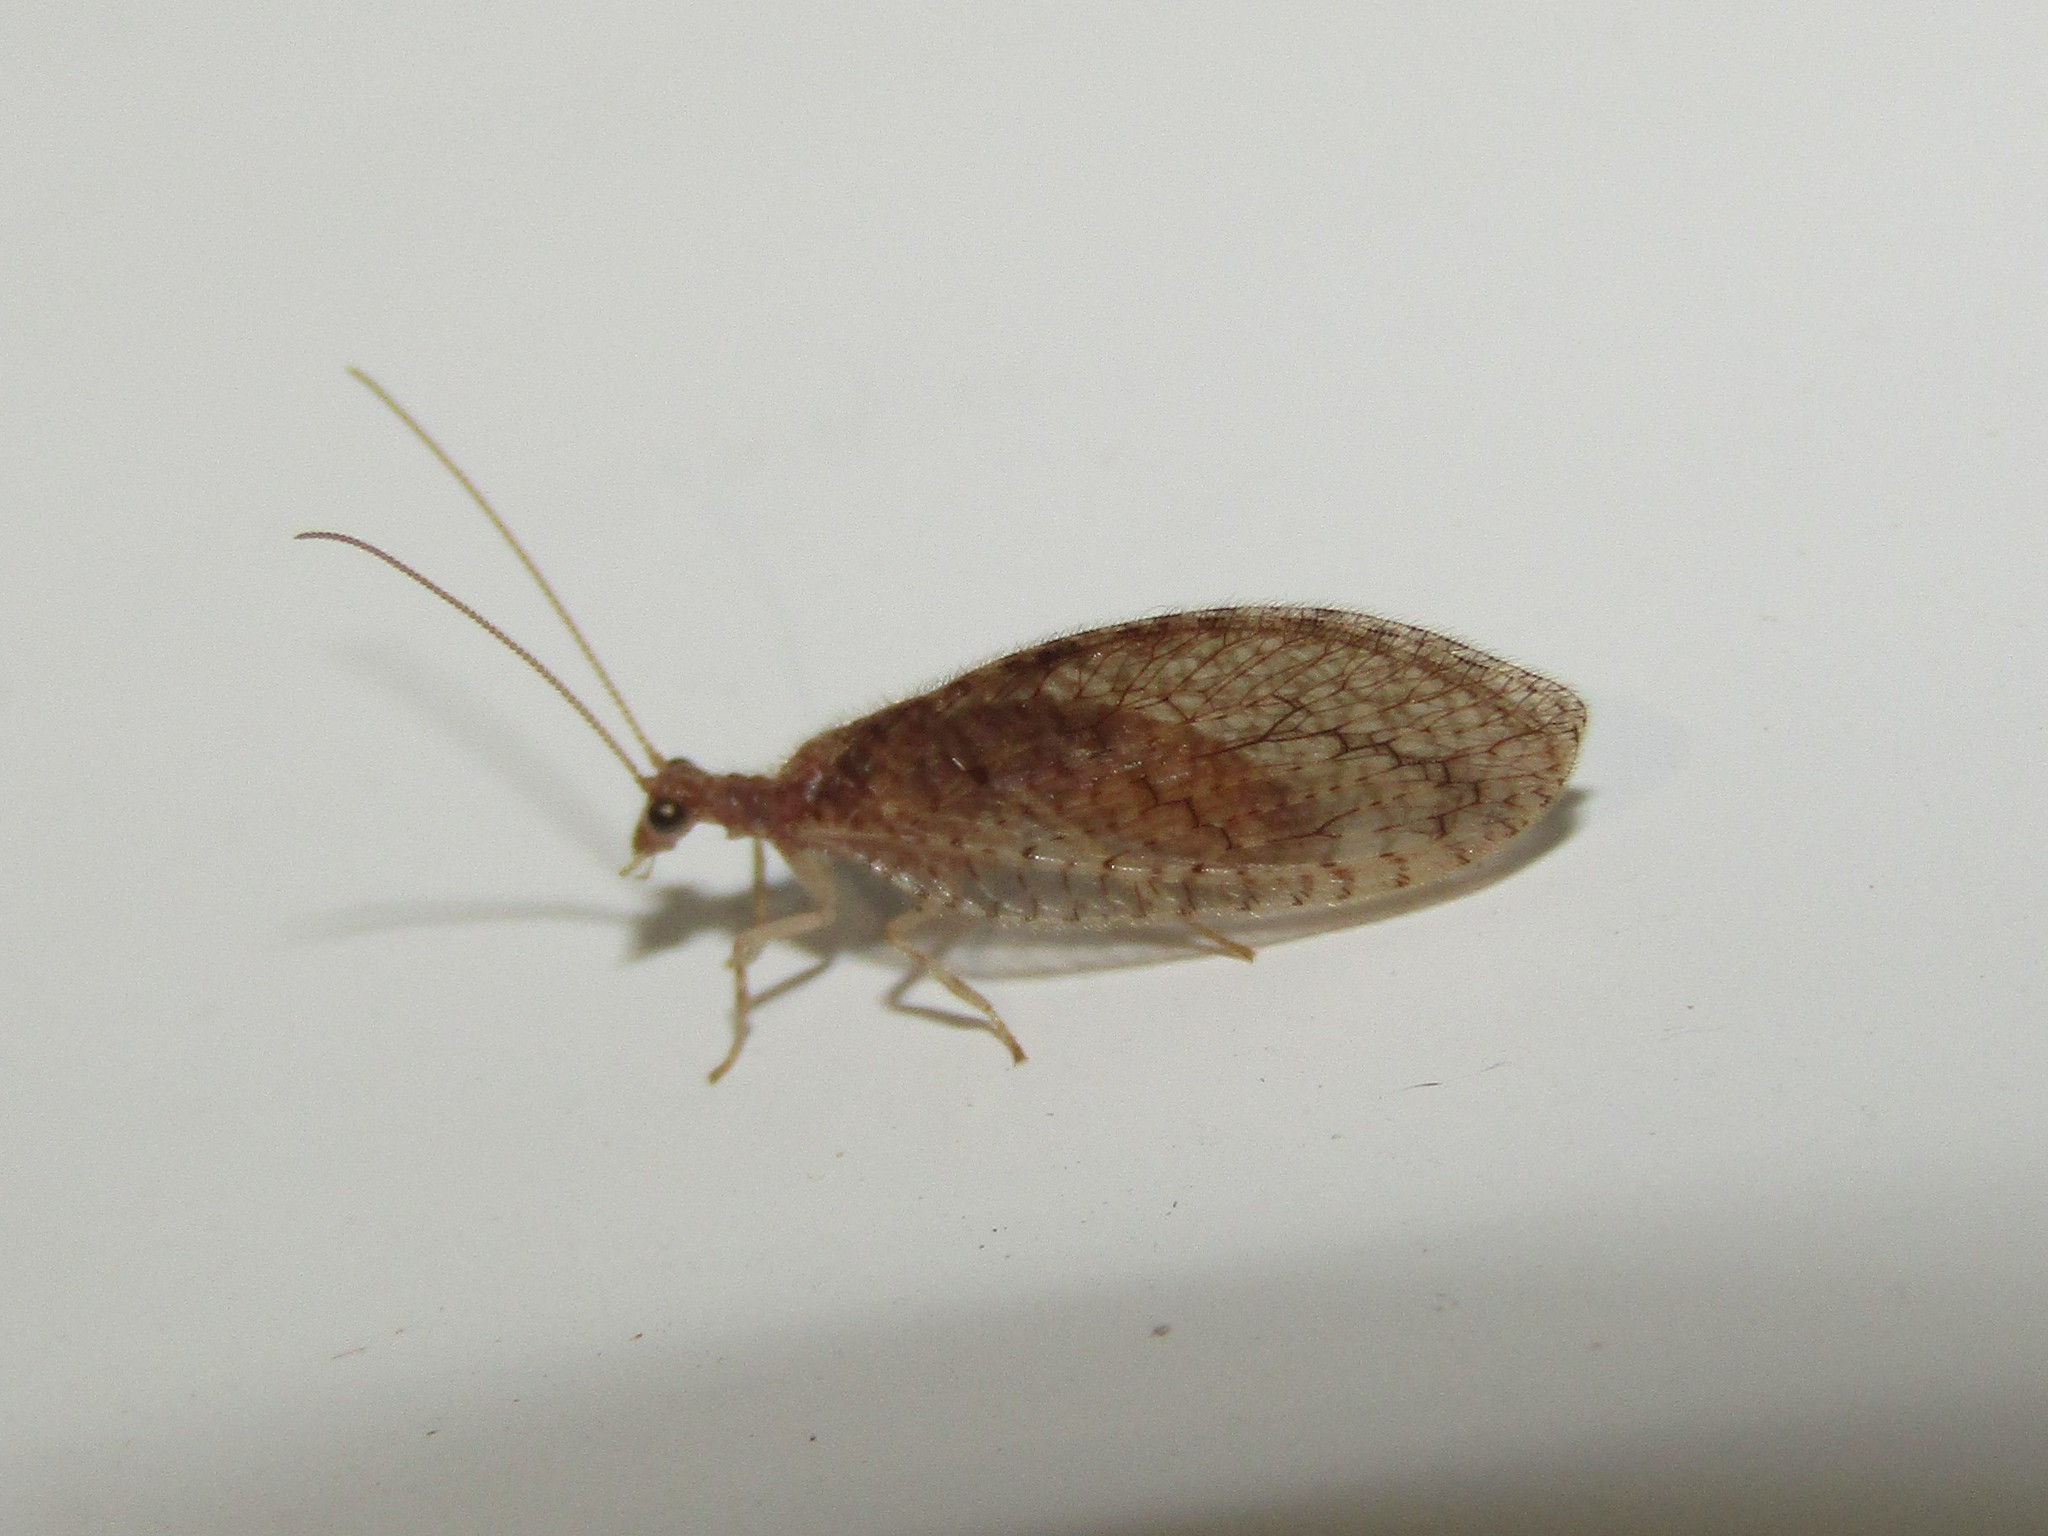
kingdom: Animalia
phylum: Arthropoda
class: Insecta
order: Neuroptera
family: Hemerobiidae
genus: Micromus
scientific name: Micromus posticus
